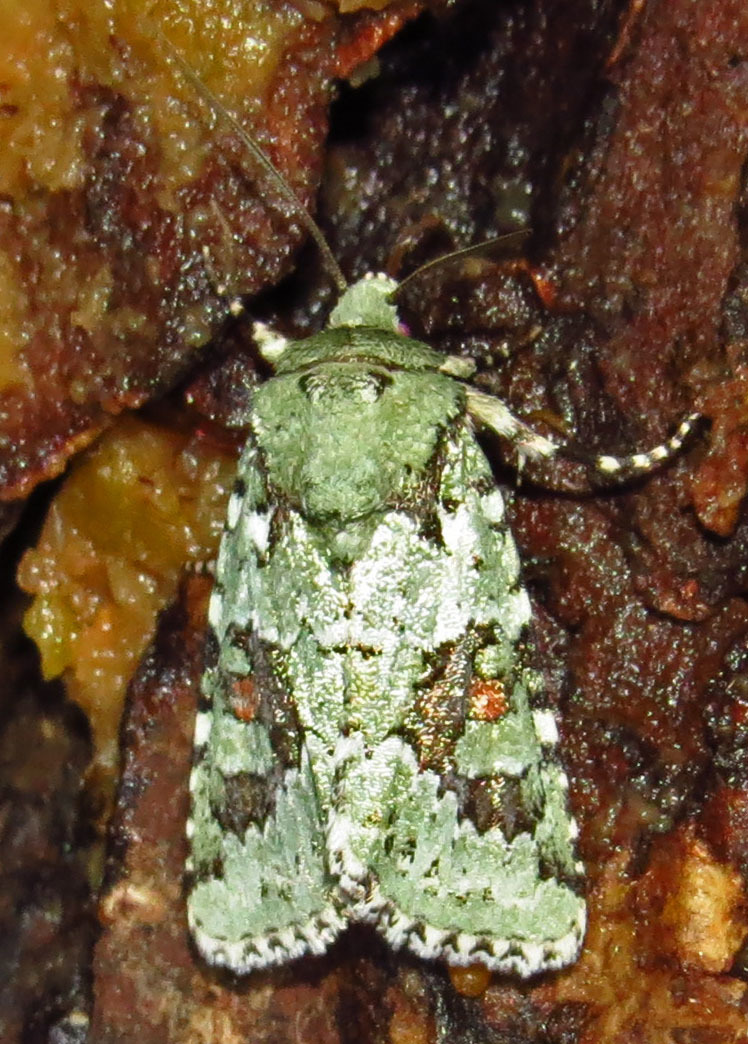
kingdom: Animalia
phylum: Arthropoda
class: Insecta
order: Lepidoptera
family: Noctuidae
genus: Lacinipolia
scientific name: Lacinipolia laudabilis
